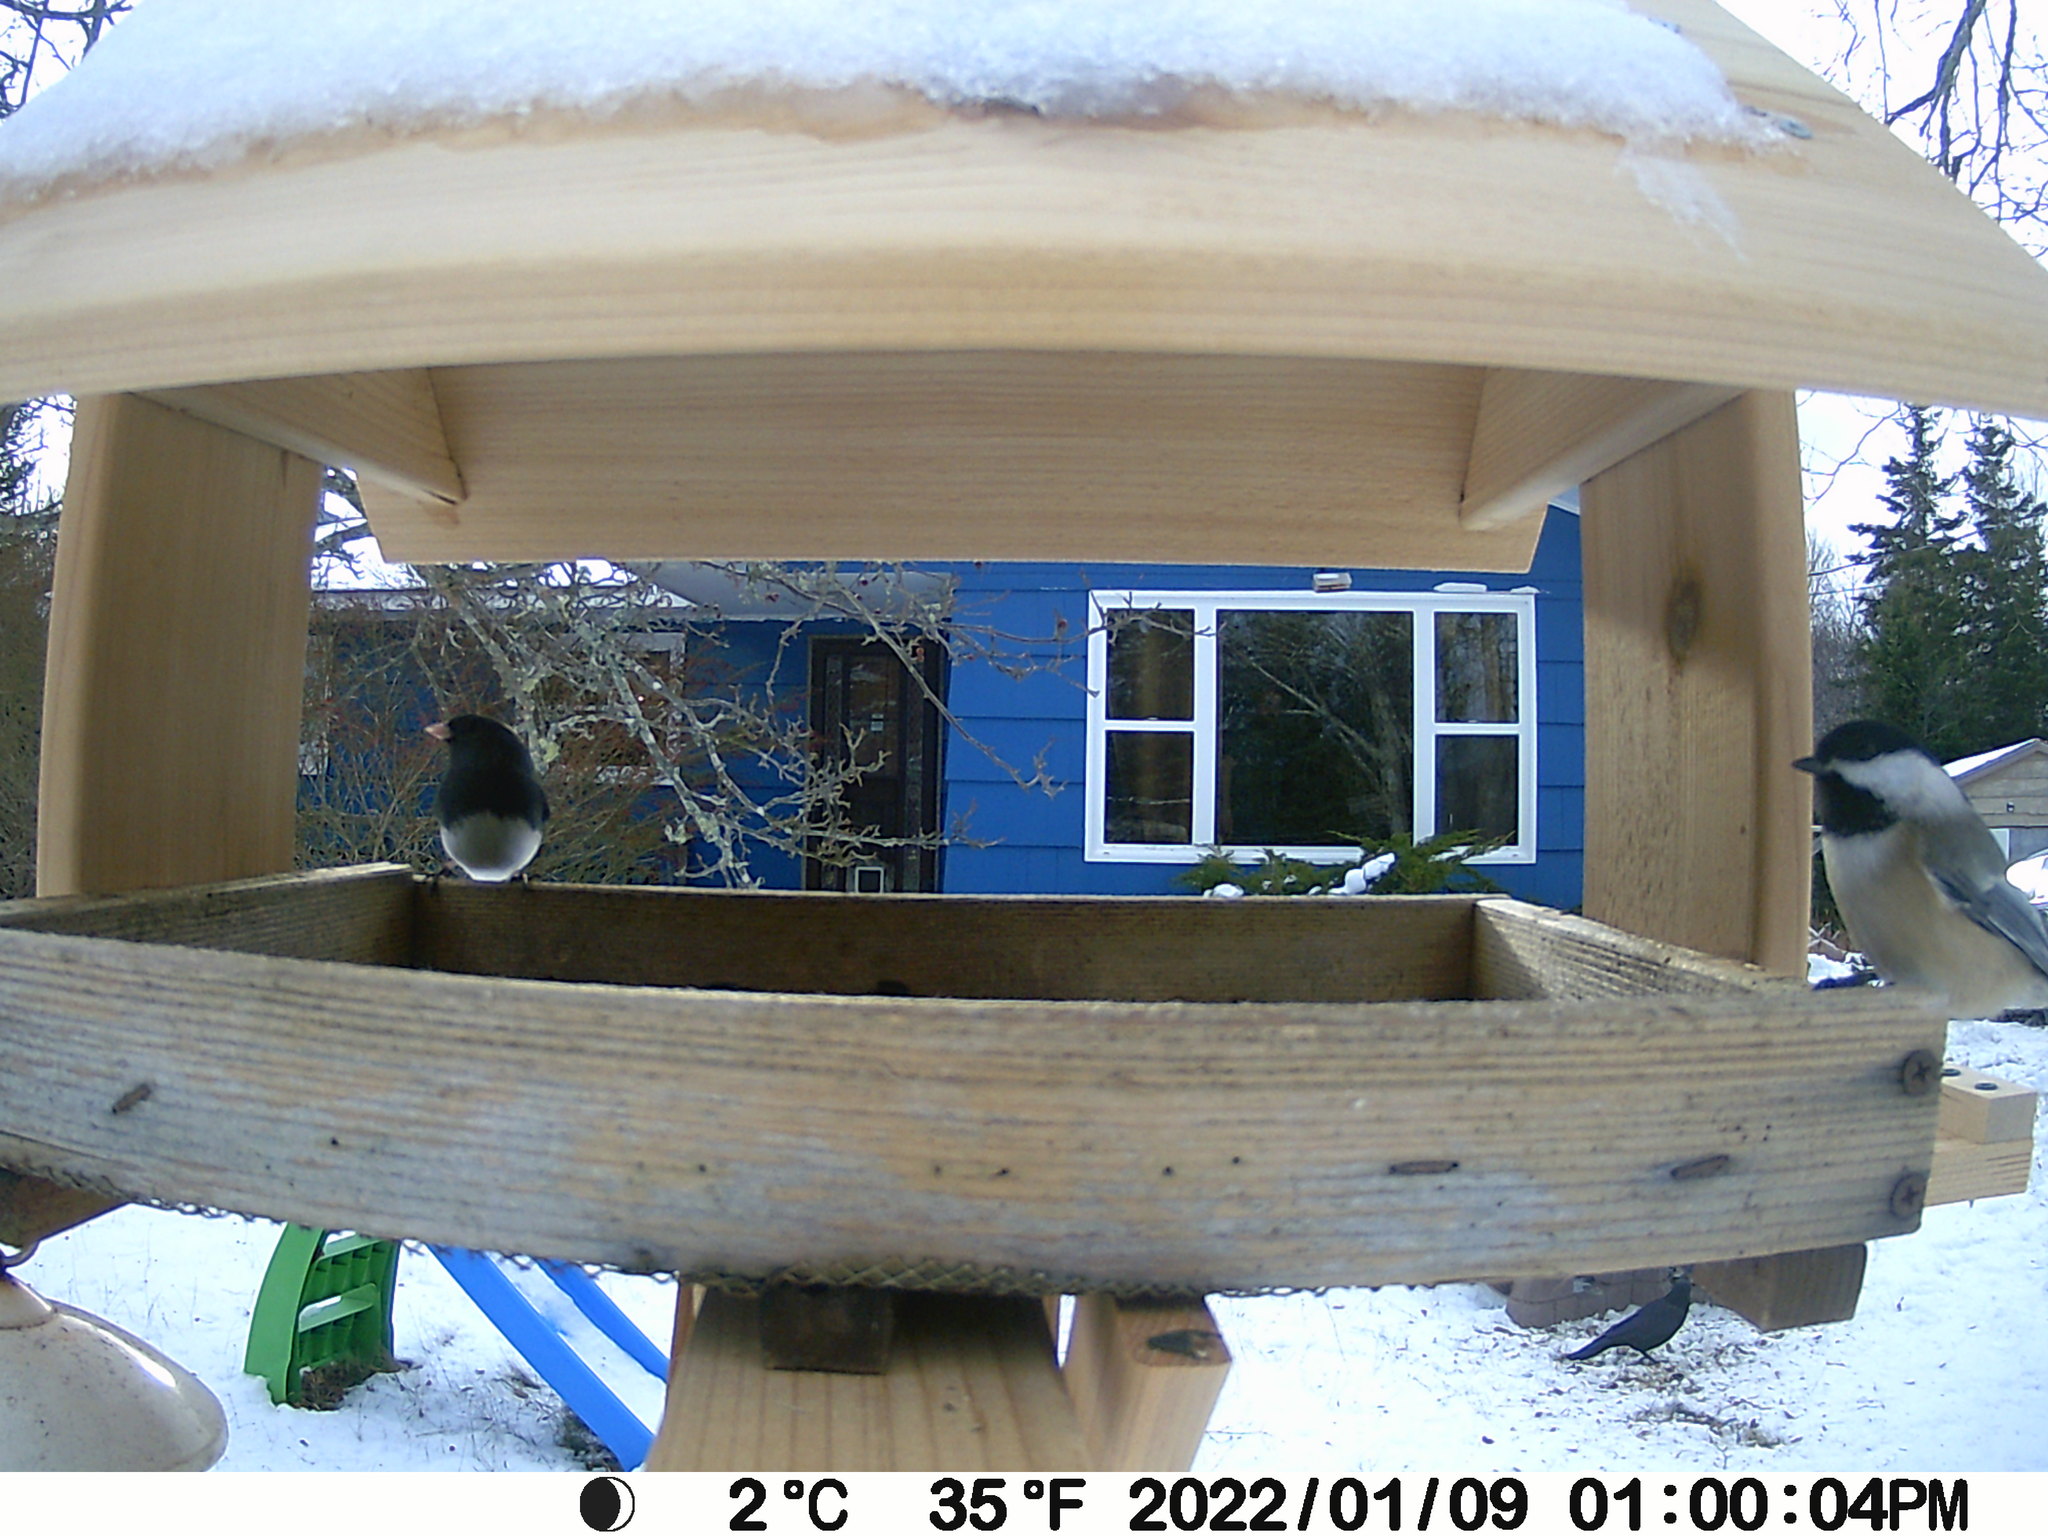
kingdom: Animalia
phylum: Chordata
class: Aves
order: Passeriformes
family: Passerellidae
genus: Junco
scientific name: Junco hyemalis
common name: Dark-eyed junco
